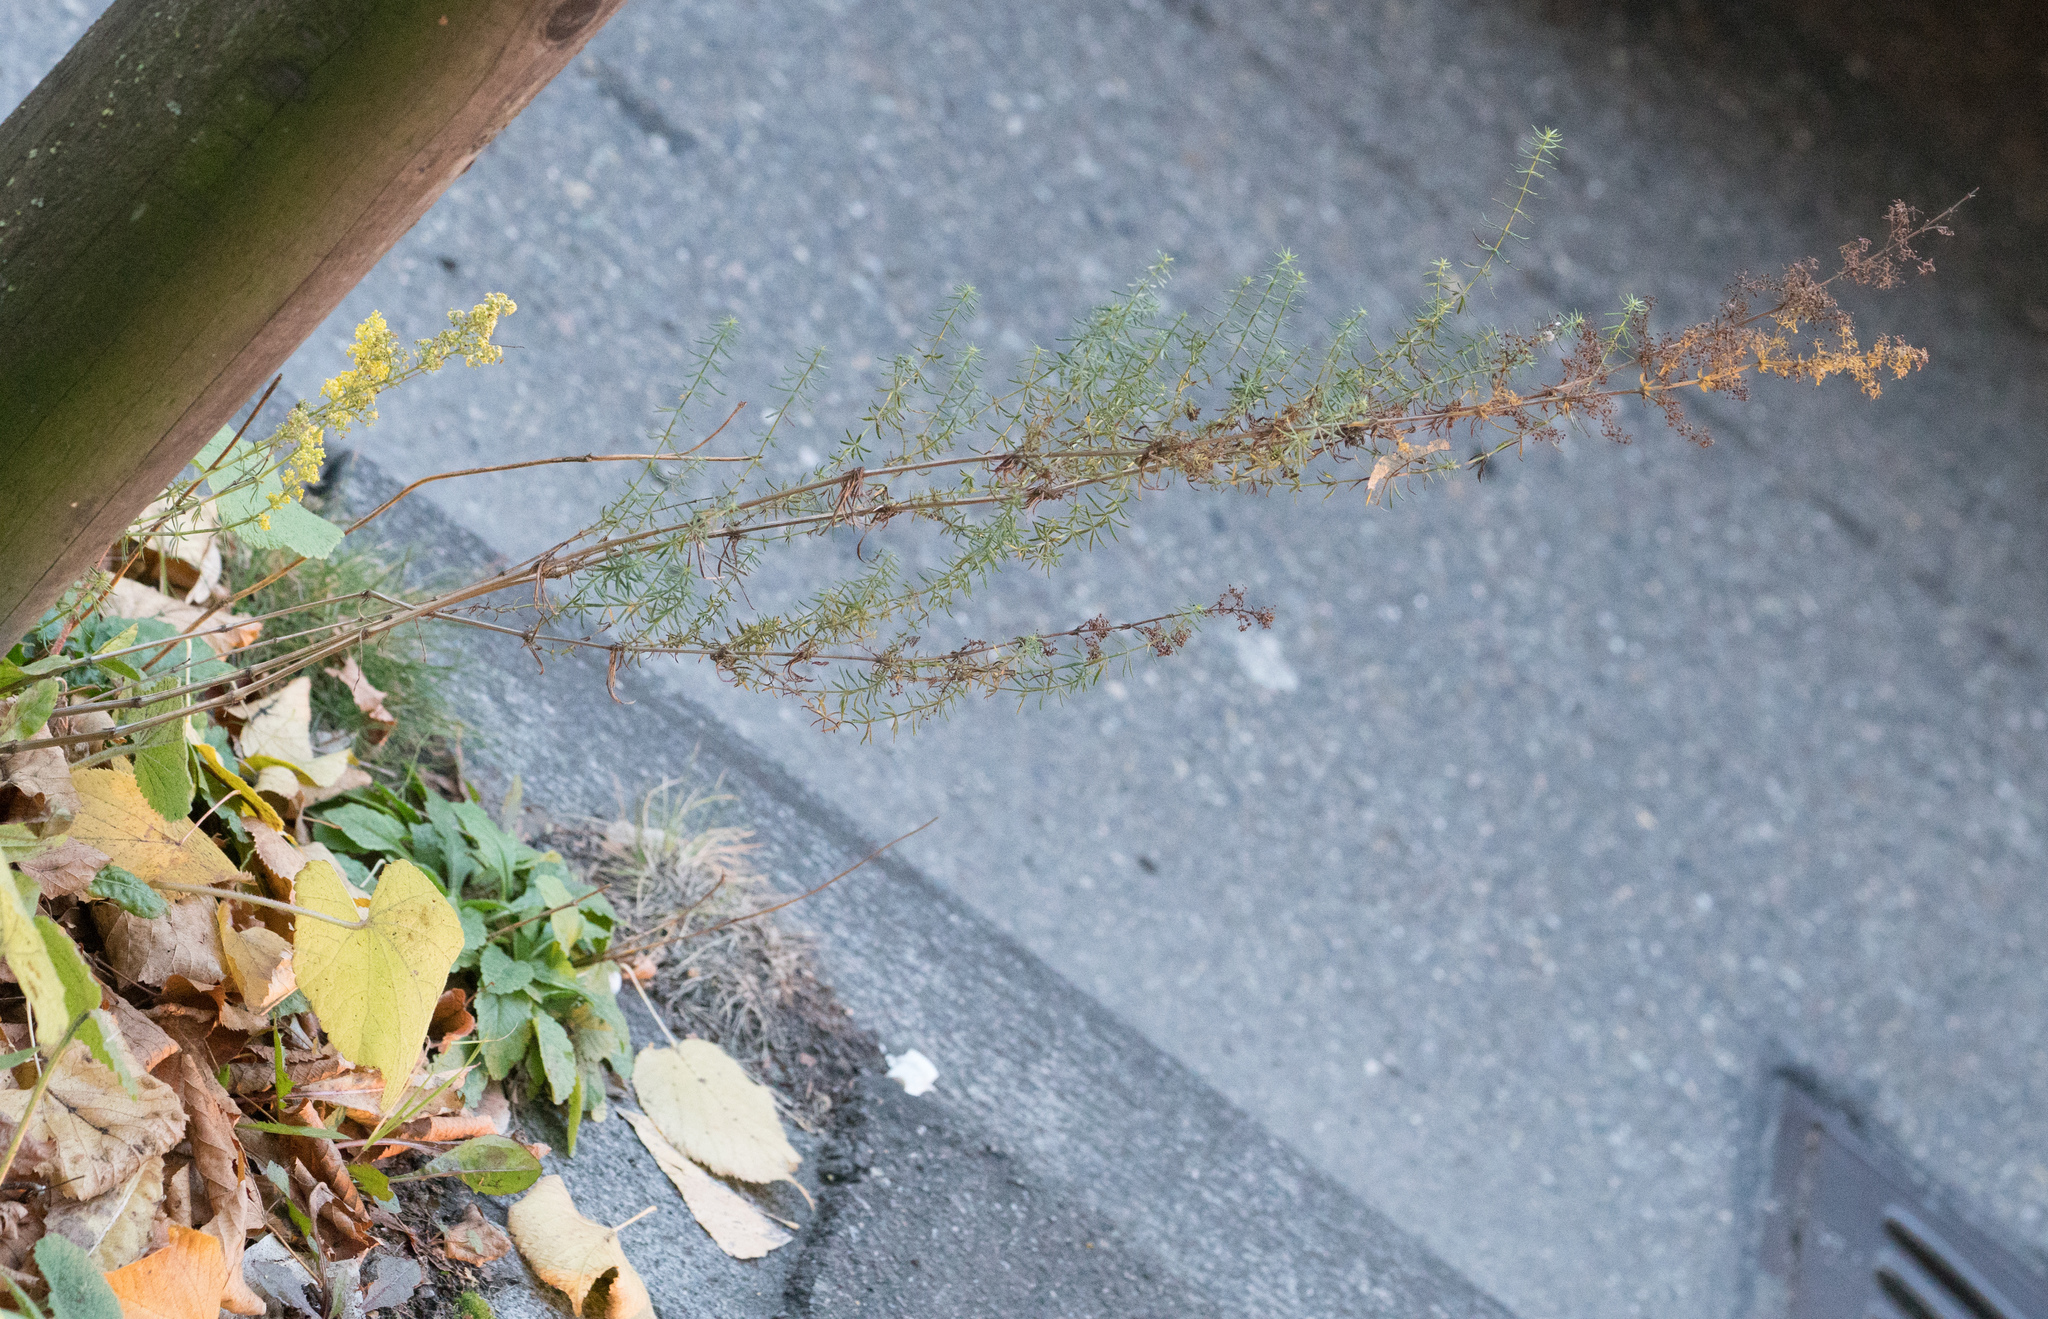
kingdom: Plantae
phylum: Tracheophyta
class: Magnoliopsida
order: Gentianales
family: Rubiaceae
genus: Galium
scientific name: Galium verum
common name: Lady's bedstraw
